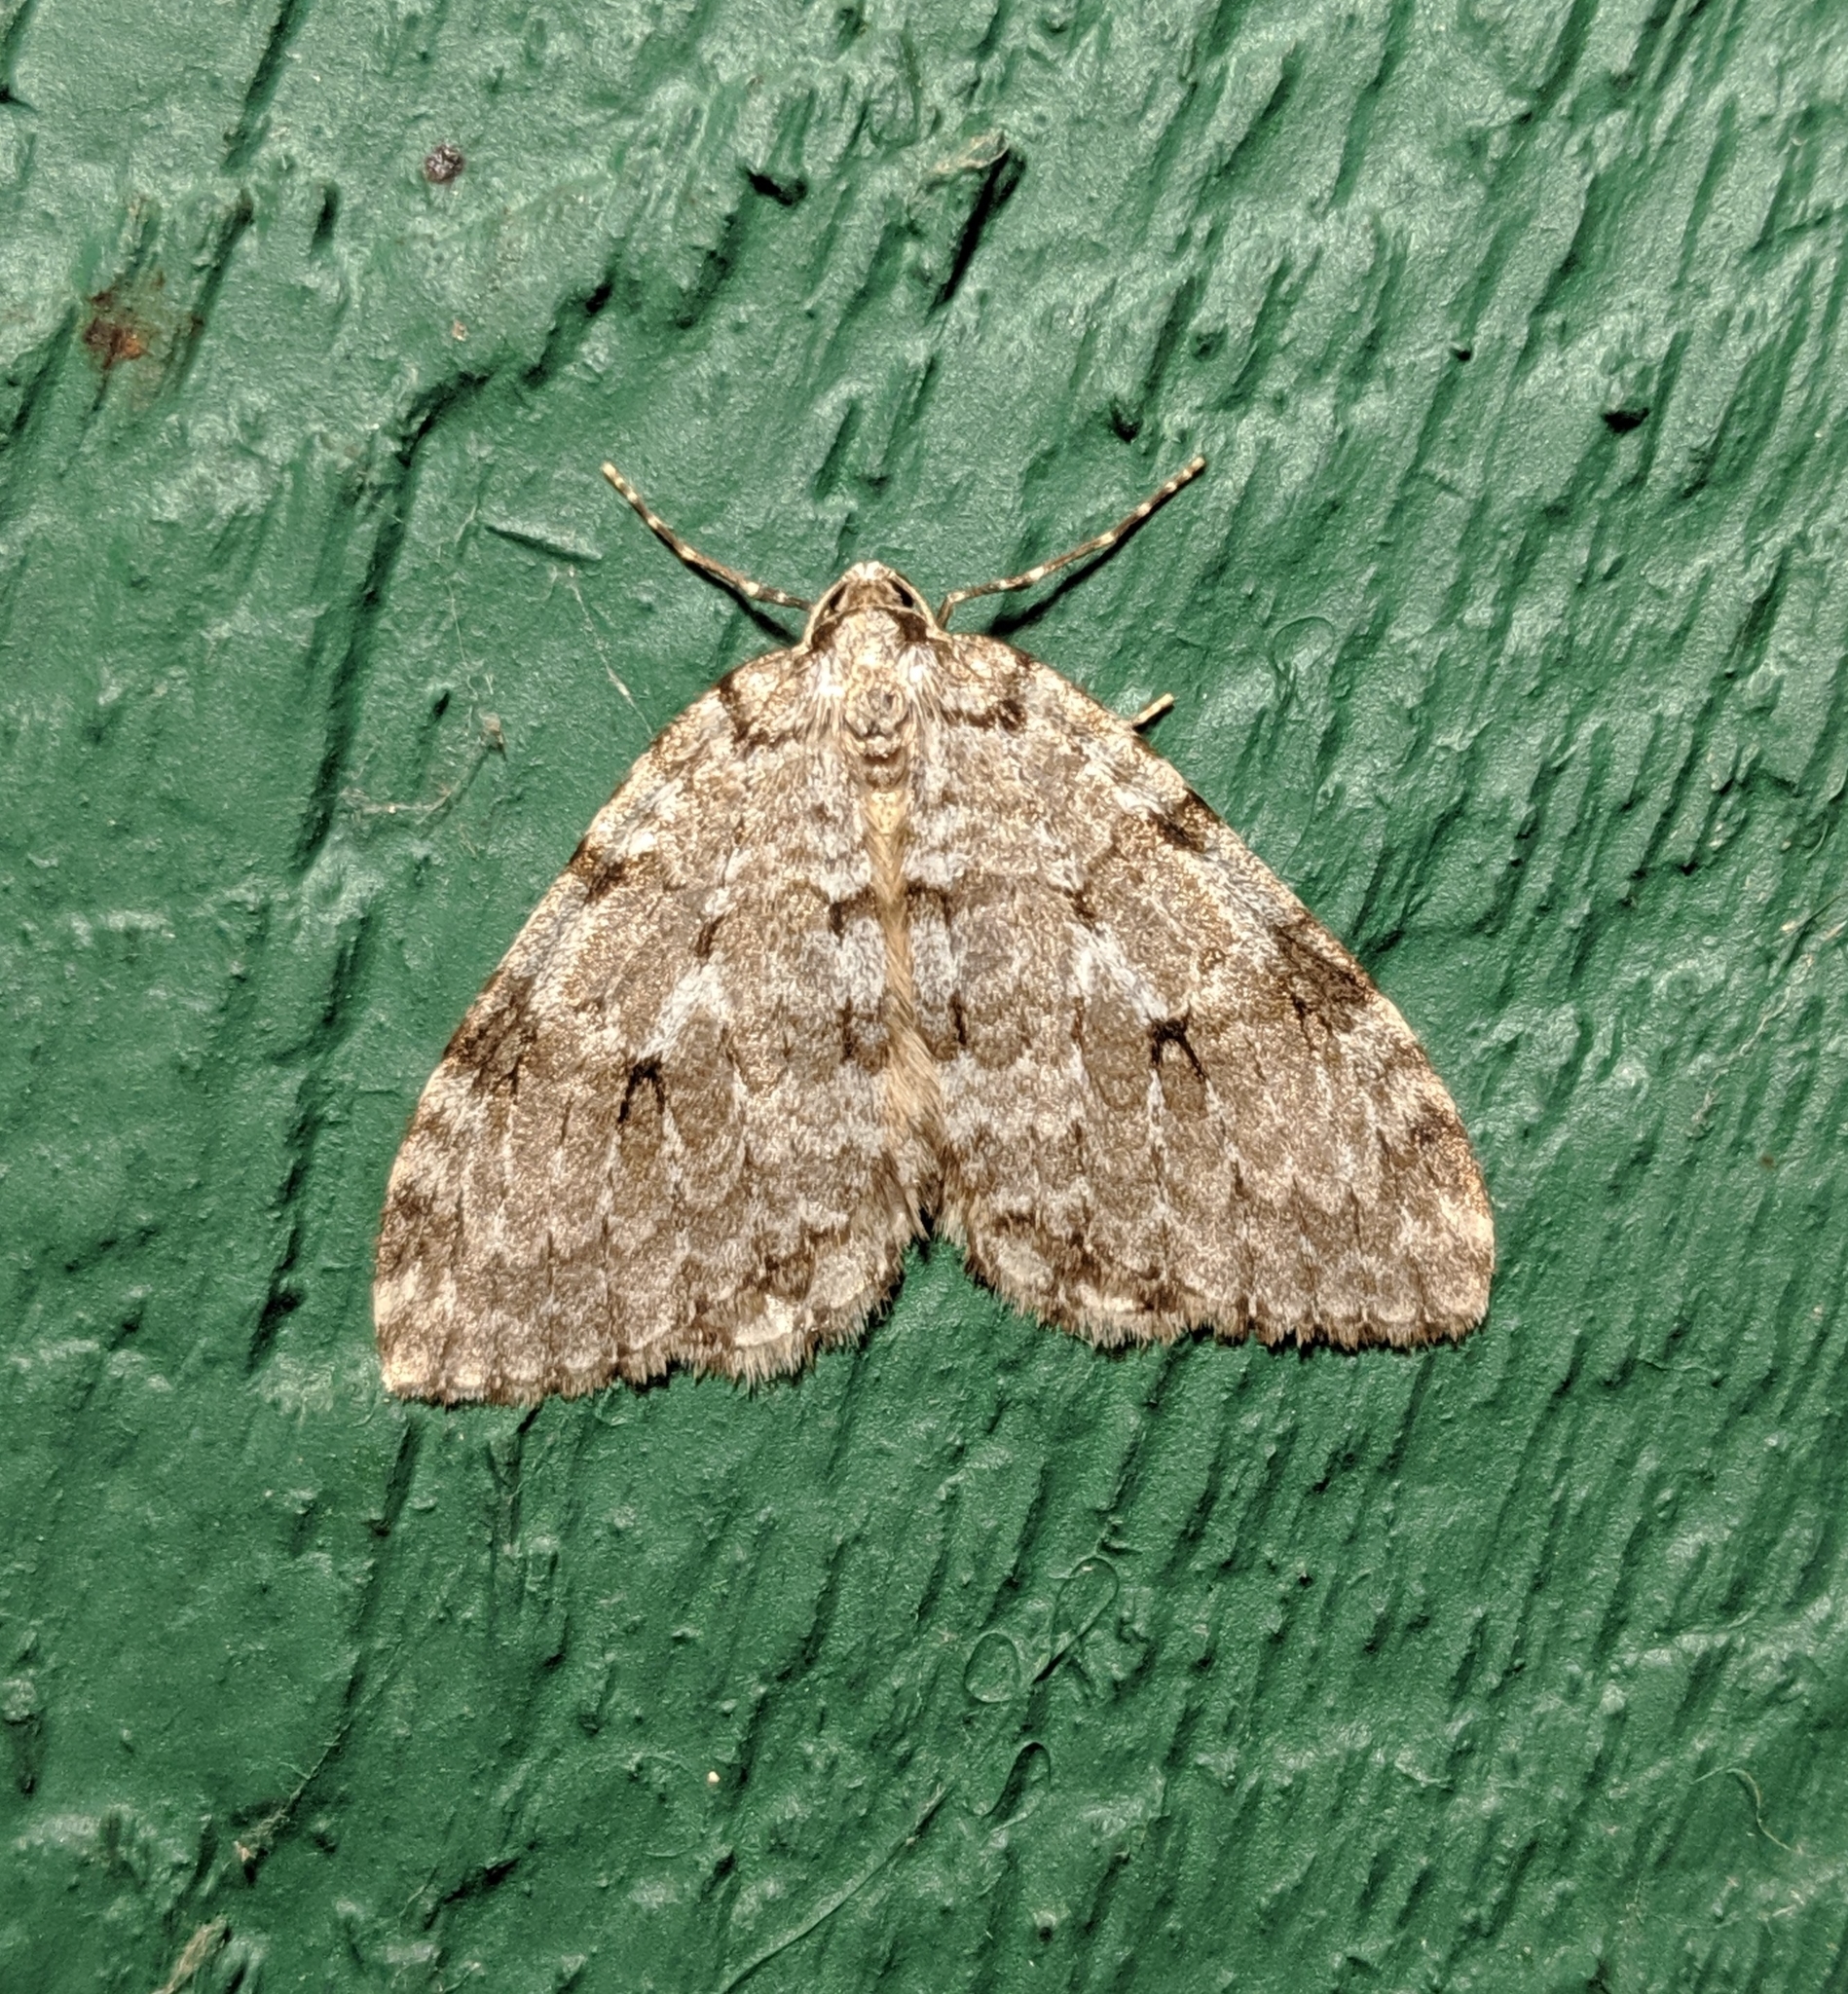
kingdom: Animalia
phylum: Arthropoda
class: Insecta
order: Lepidoptera
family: Geometridae
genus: Epirrita
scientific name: Epirrita autumnata
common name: Autumnal moth
